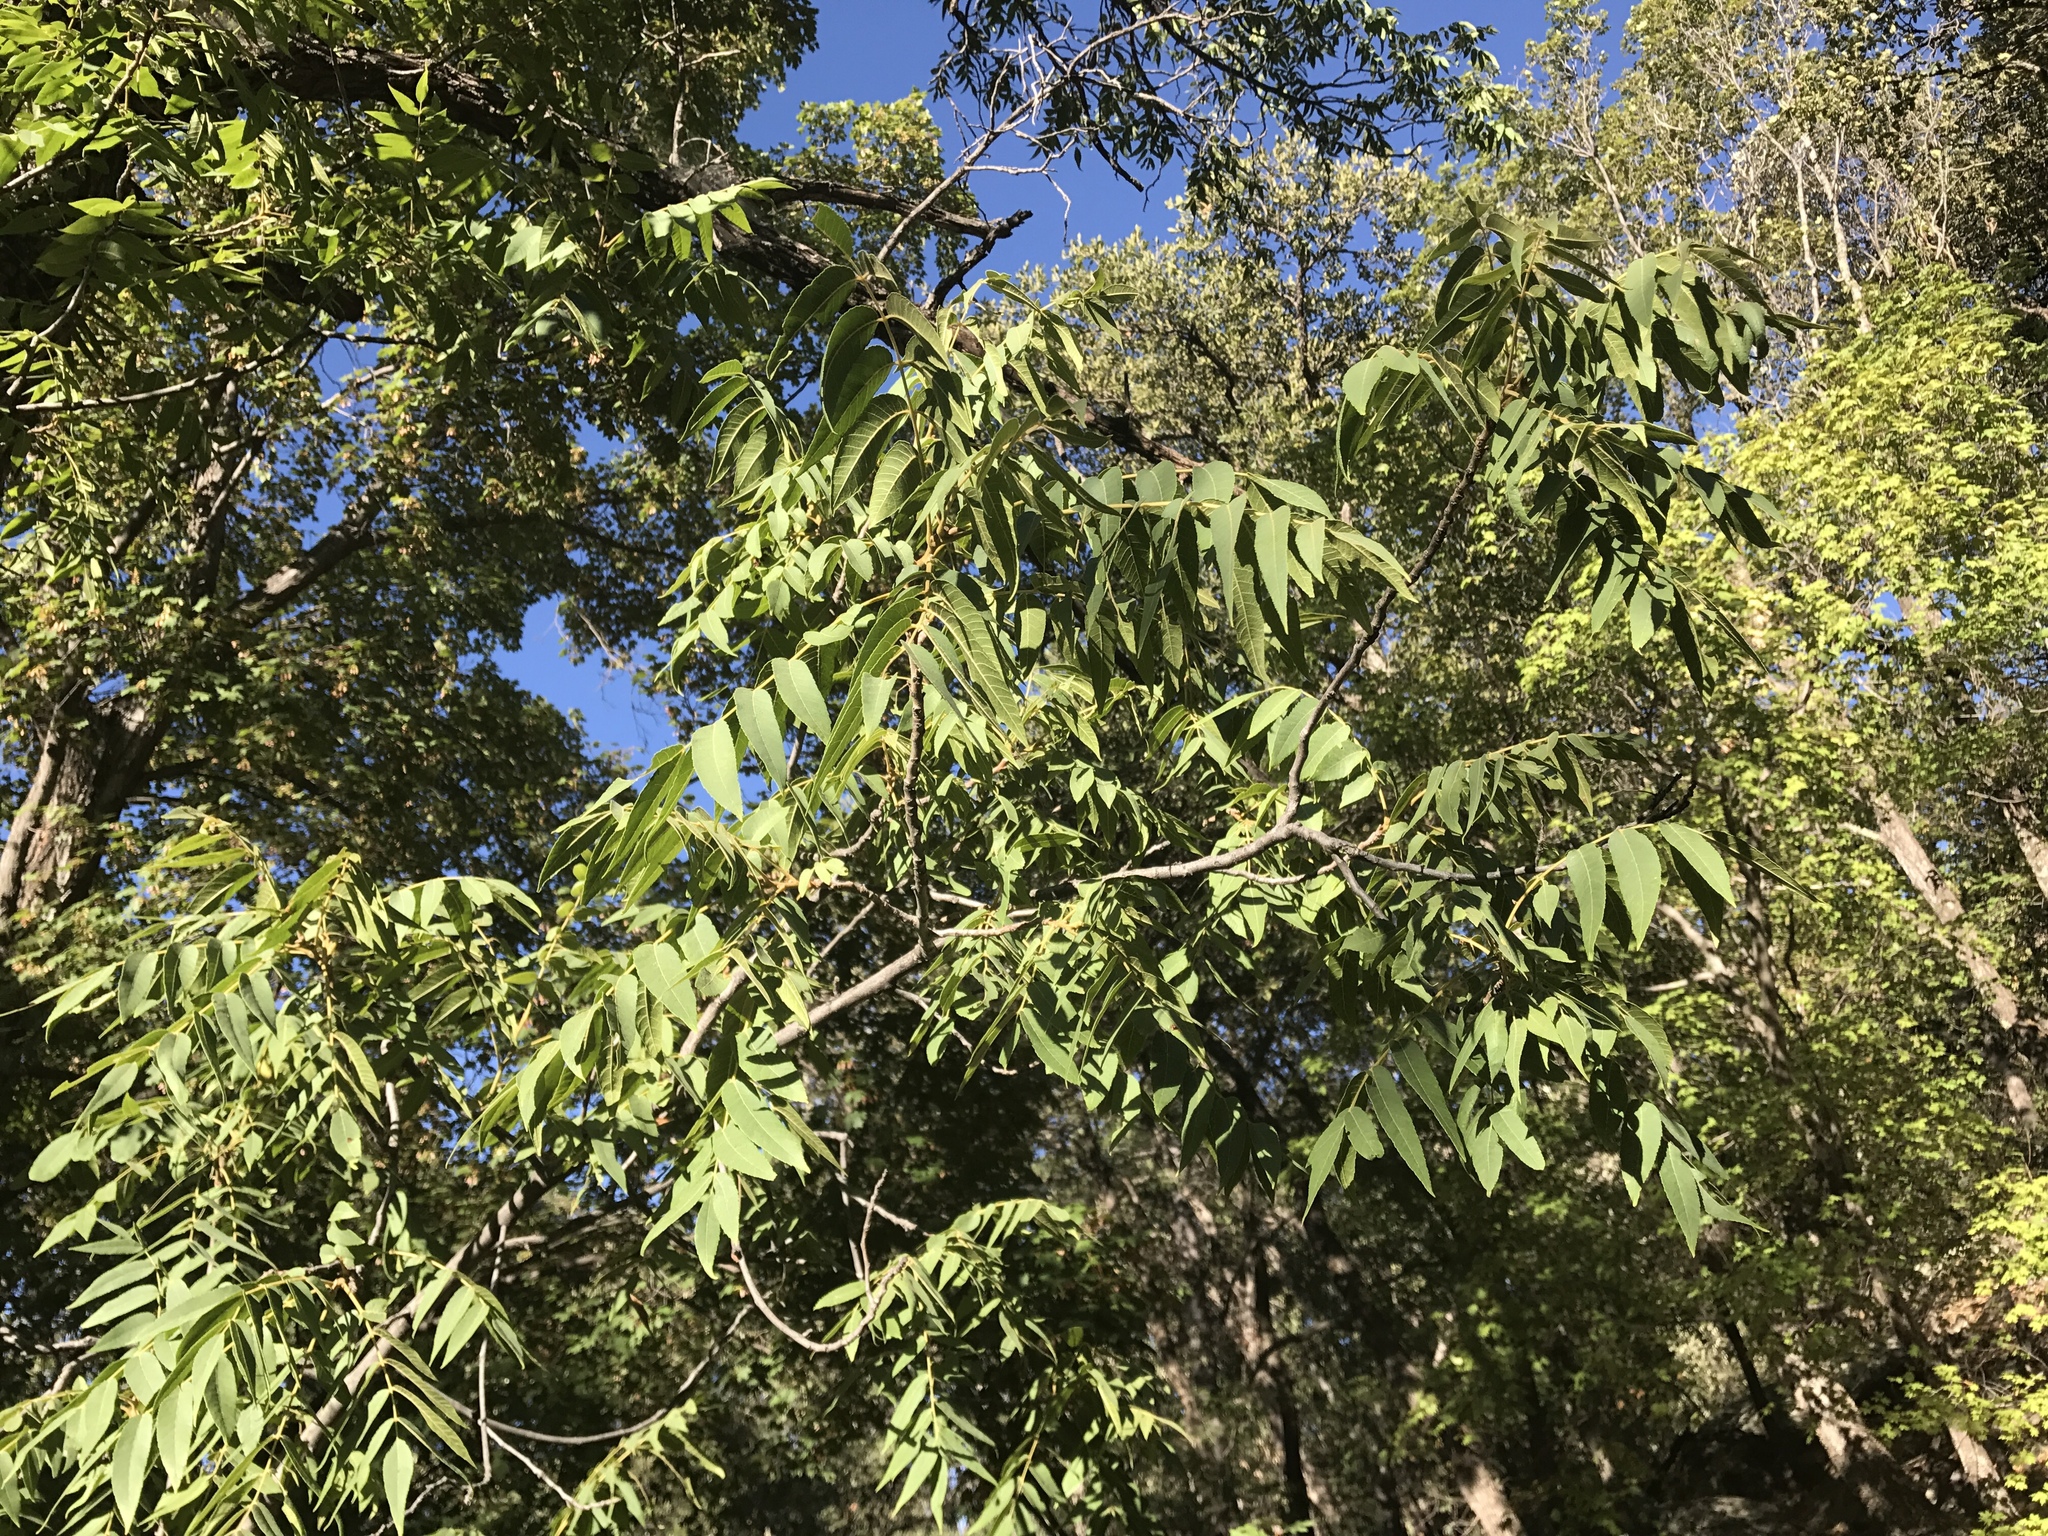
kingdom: Plantae
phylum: Tracheophyta
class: Magnoliopsida
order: Fagales
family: Juglandaceae
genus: Juglans
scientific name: Juglans major
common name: Arizona walnut
